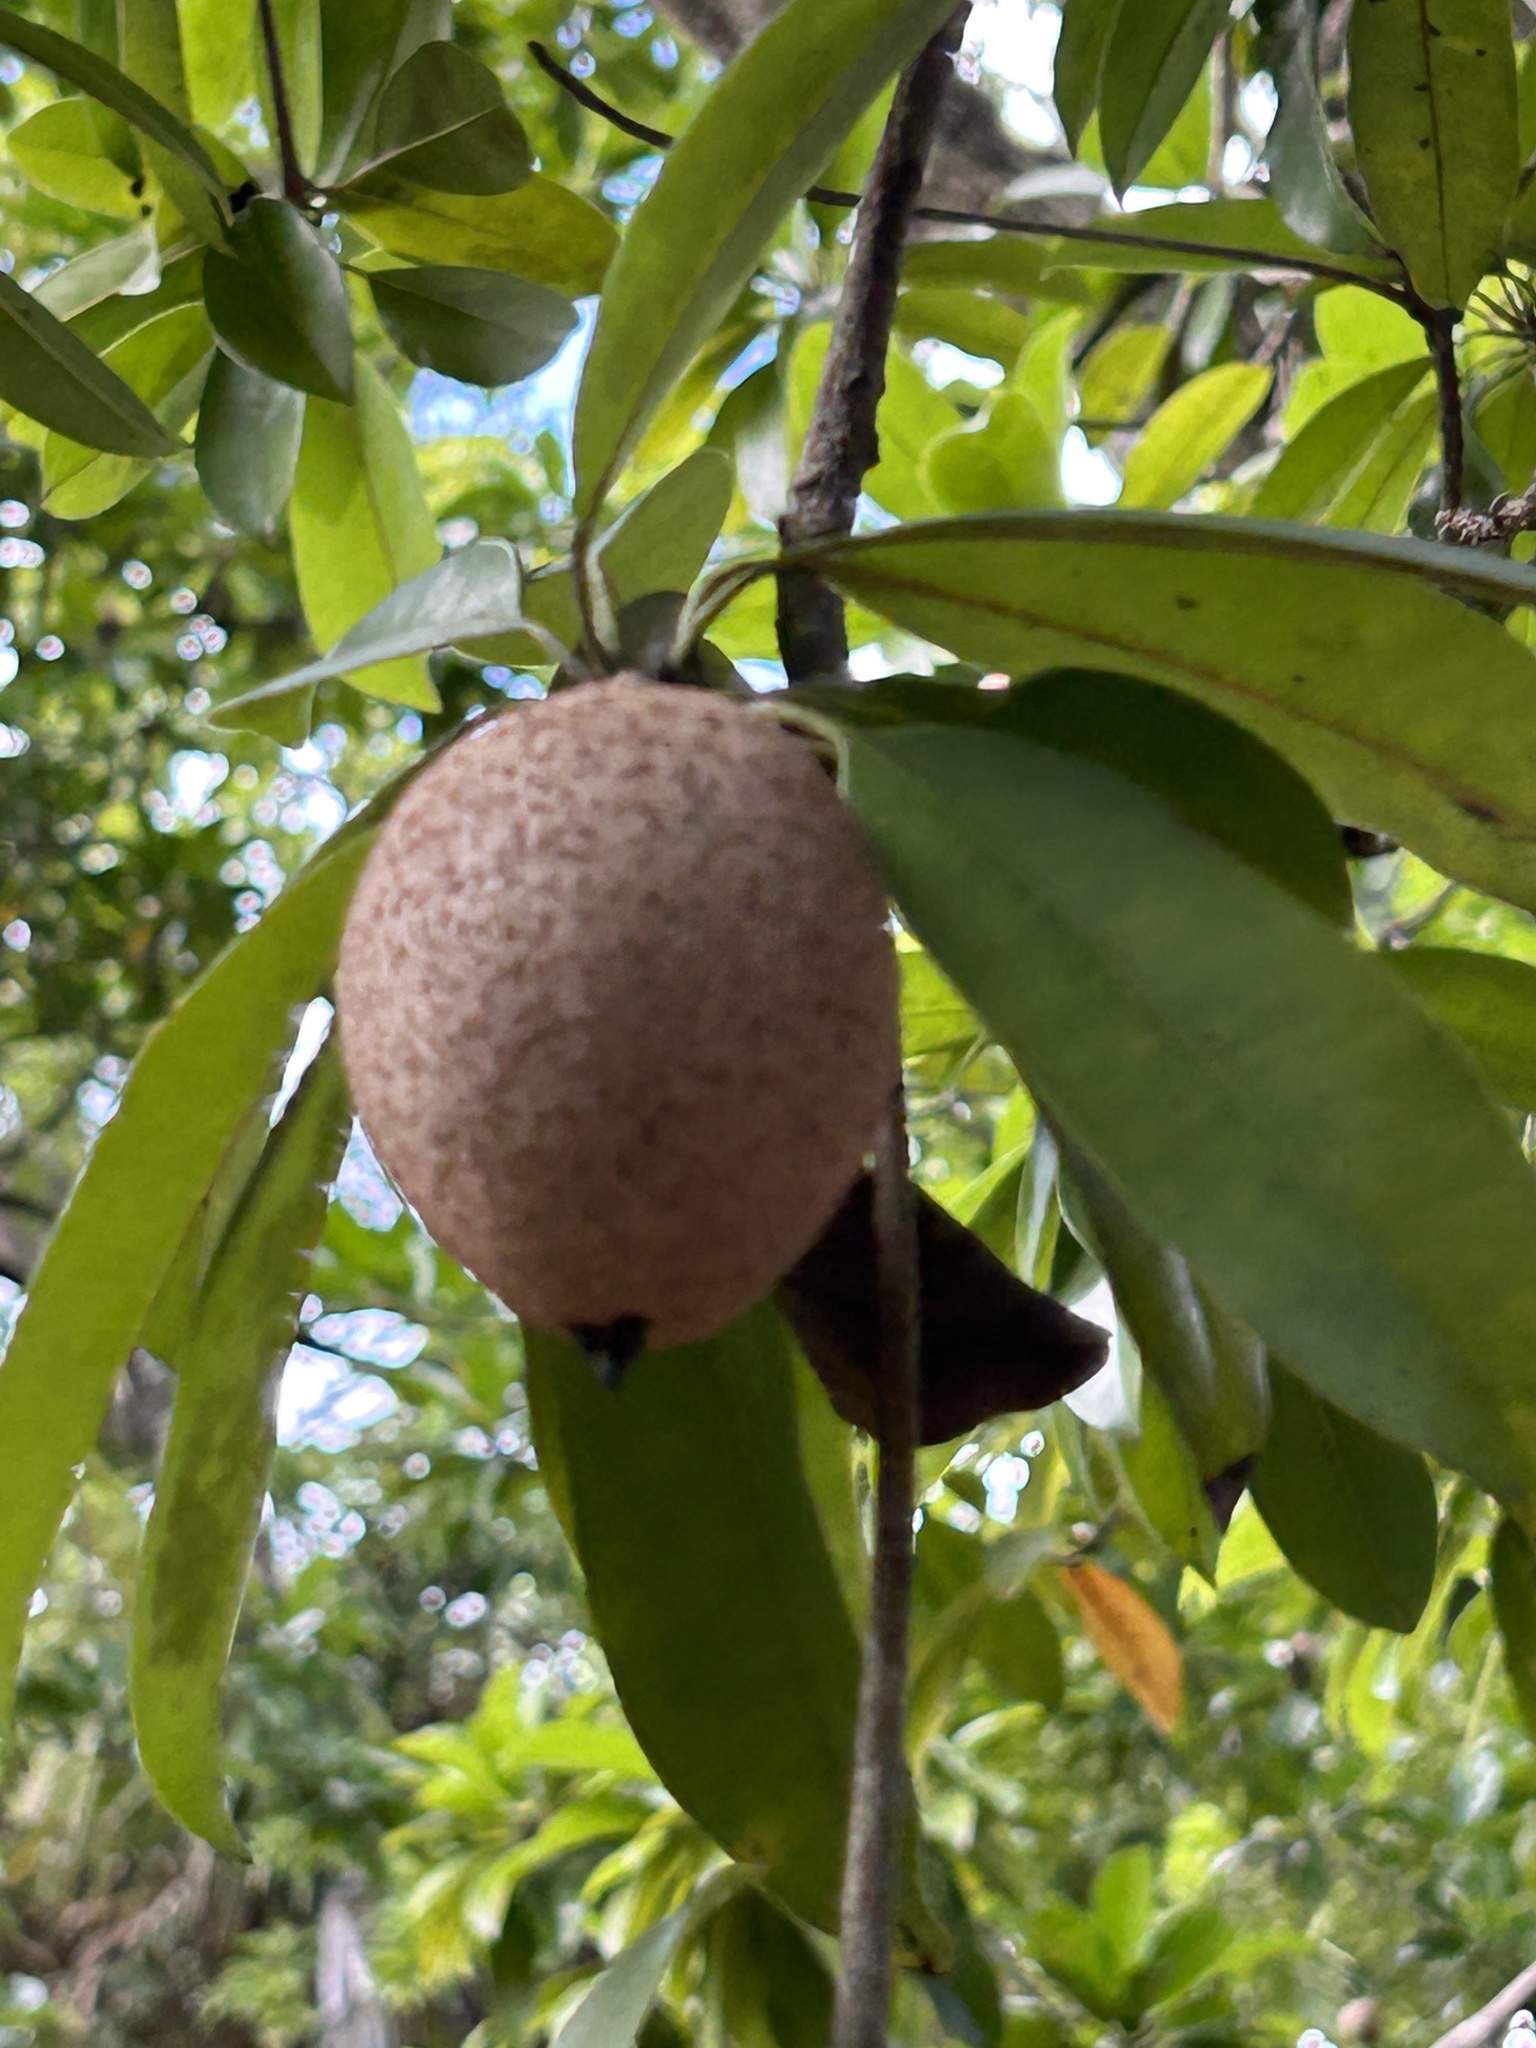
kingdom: Plantae
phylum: Tracheophyta
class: Magnoliopsida
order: Ericales
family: Sapotaceae
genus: Manilkara
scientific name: Manilkara zapota
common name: Sapodilla
